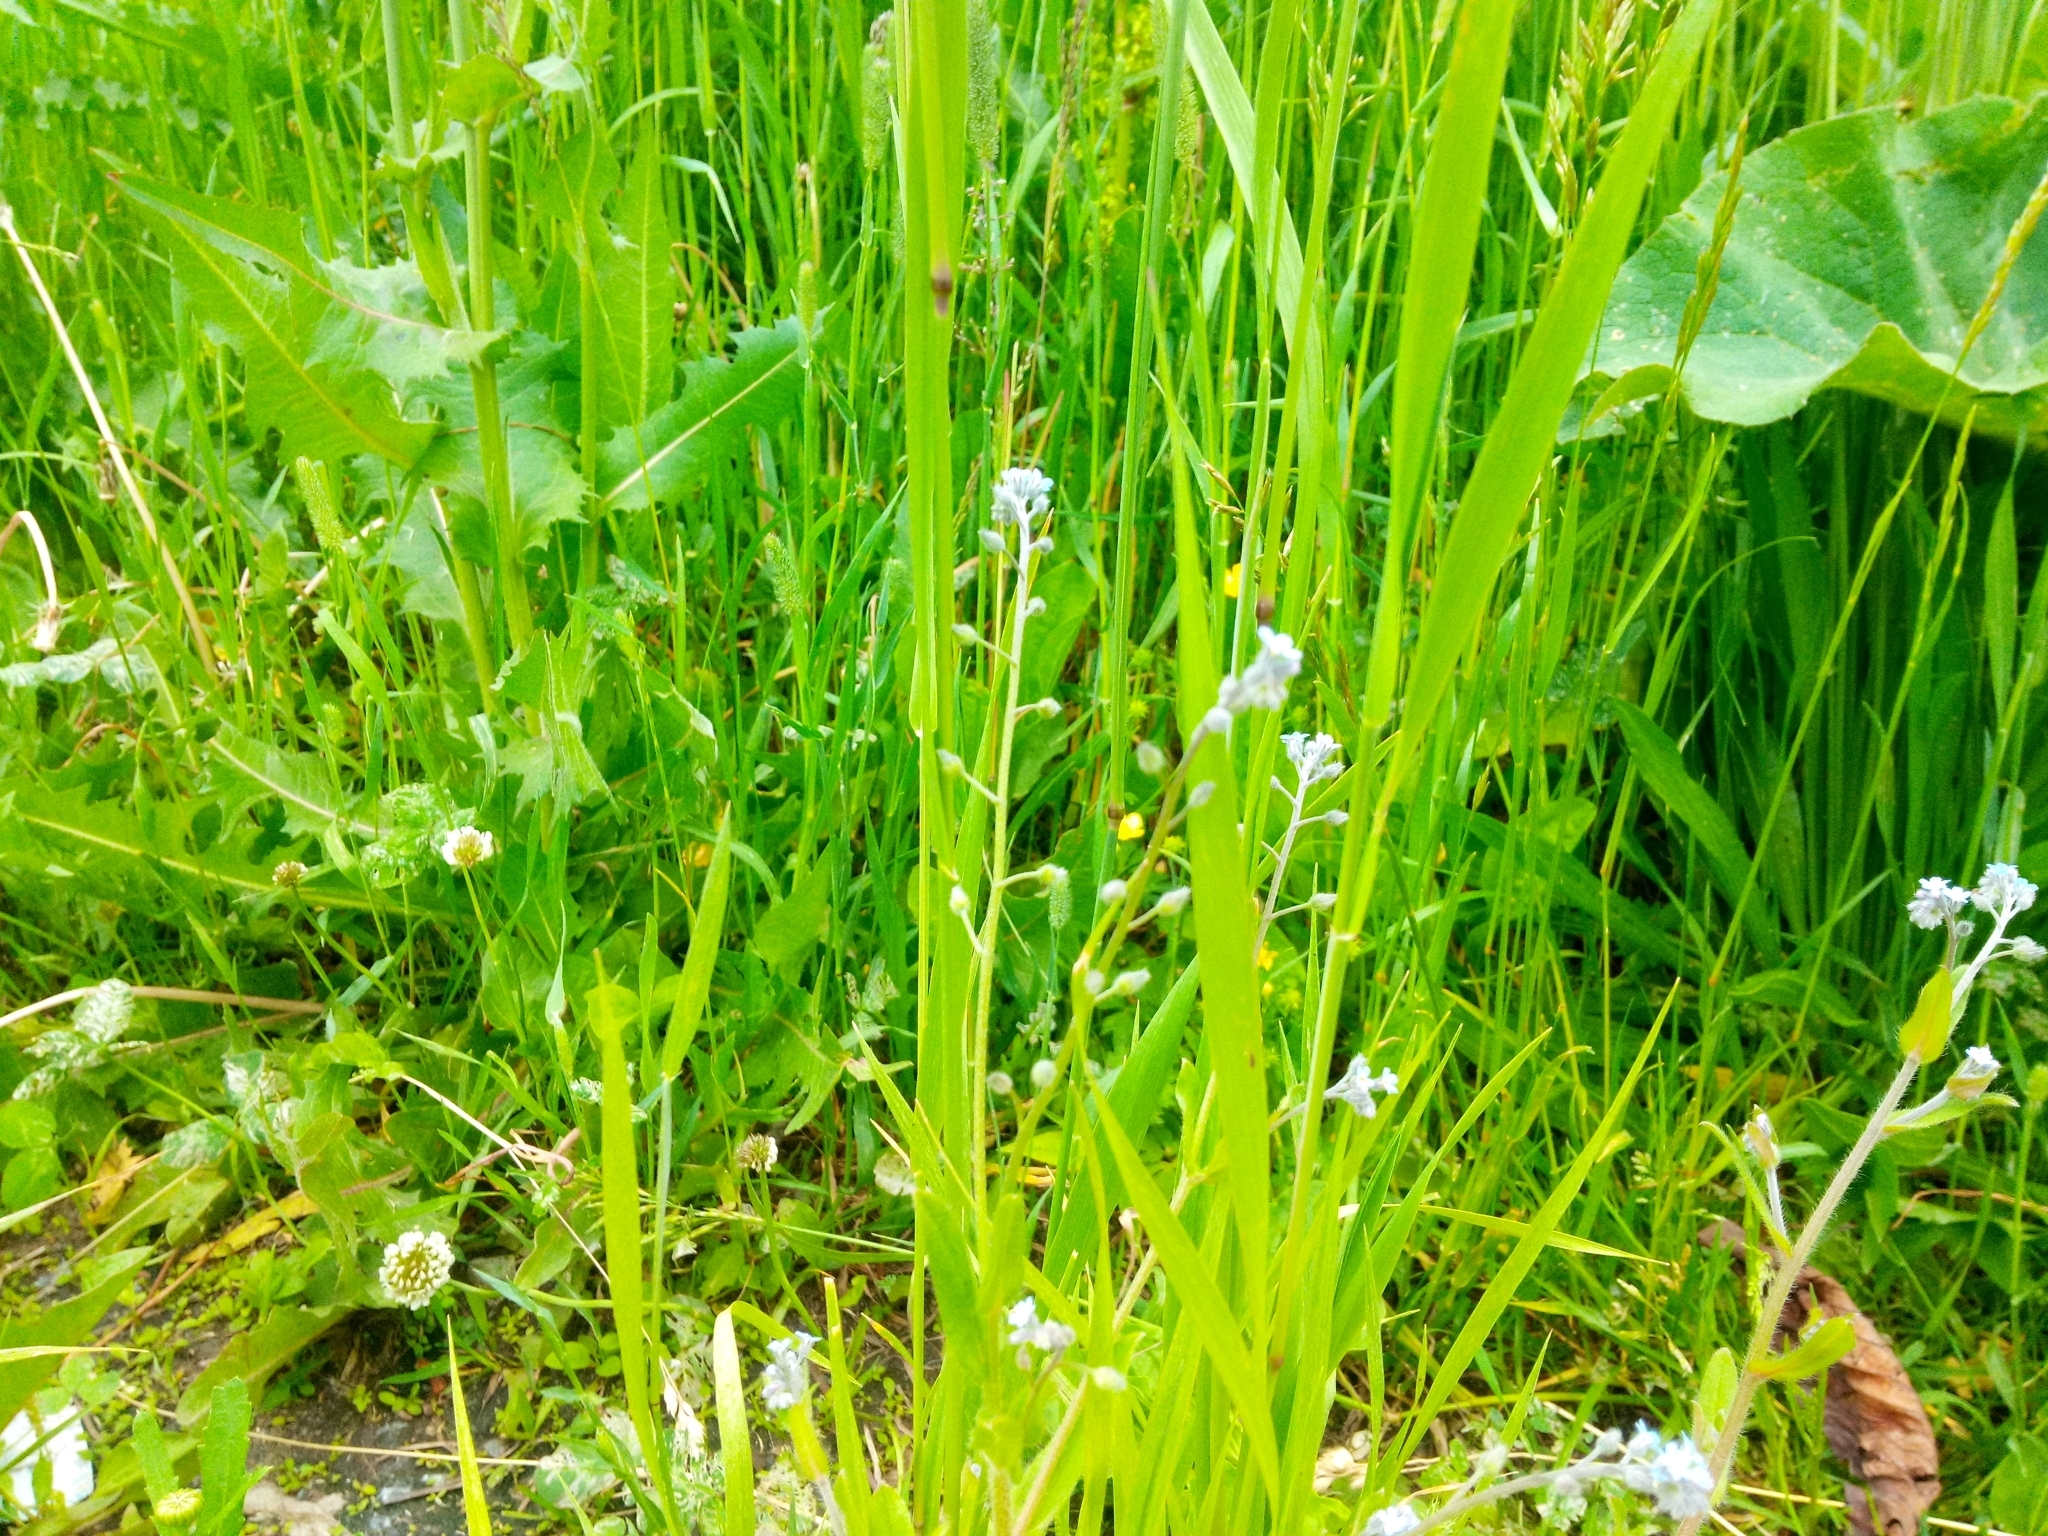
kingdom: Plantae
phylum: Tracheophyta
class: Magnoliopsida
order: Boraginales
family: Boraginaceae
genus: Myosotis
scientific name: Myosotis arvensis
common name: Field forget-me-not
